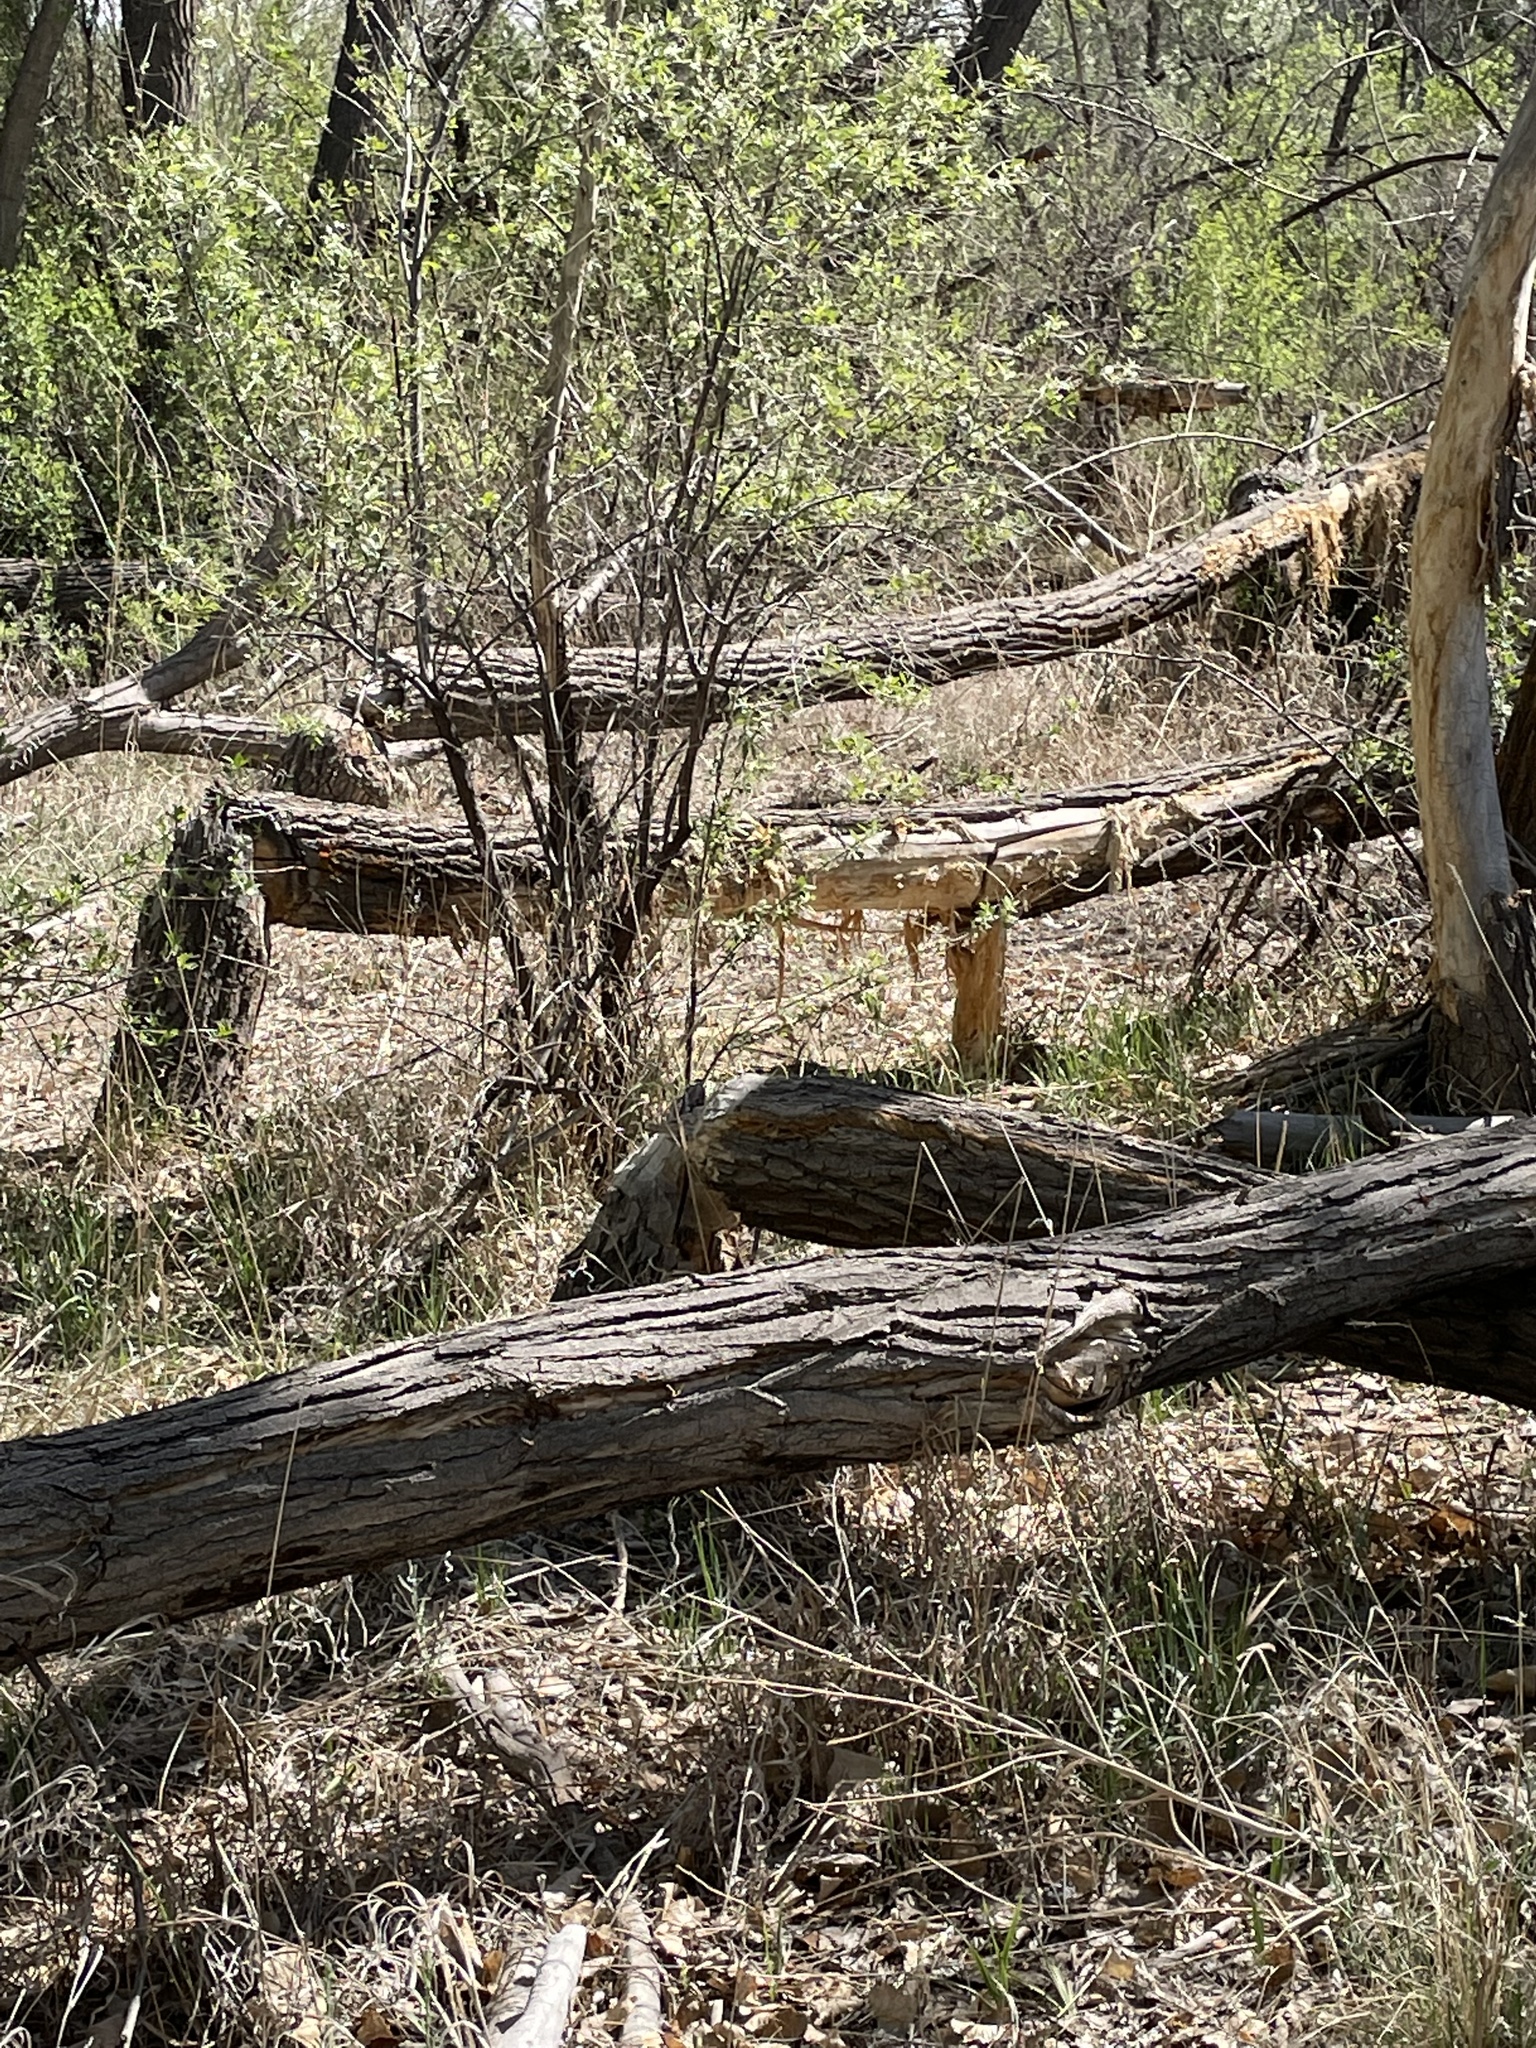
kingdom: Animalia
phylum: Chordata
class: Mammalia
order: Rodentia
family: Castoridae
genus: Castor
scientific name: Castor canadensis
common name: American beaver
